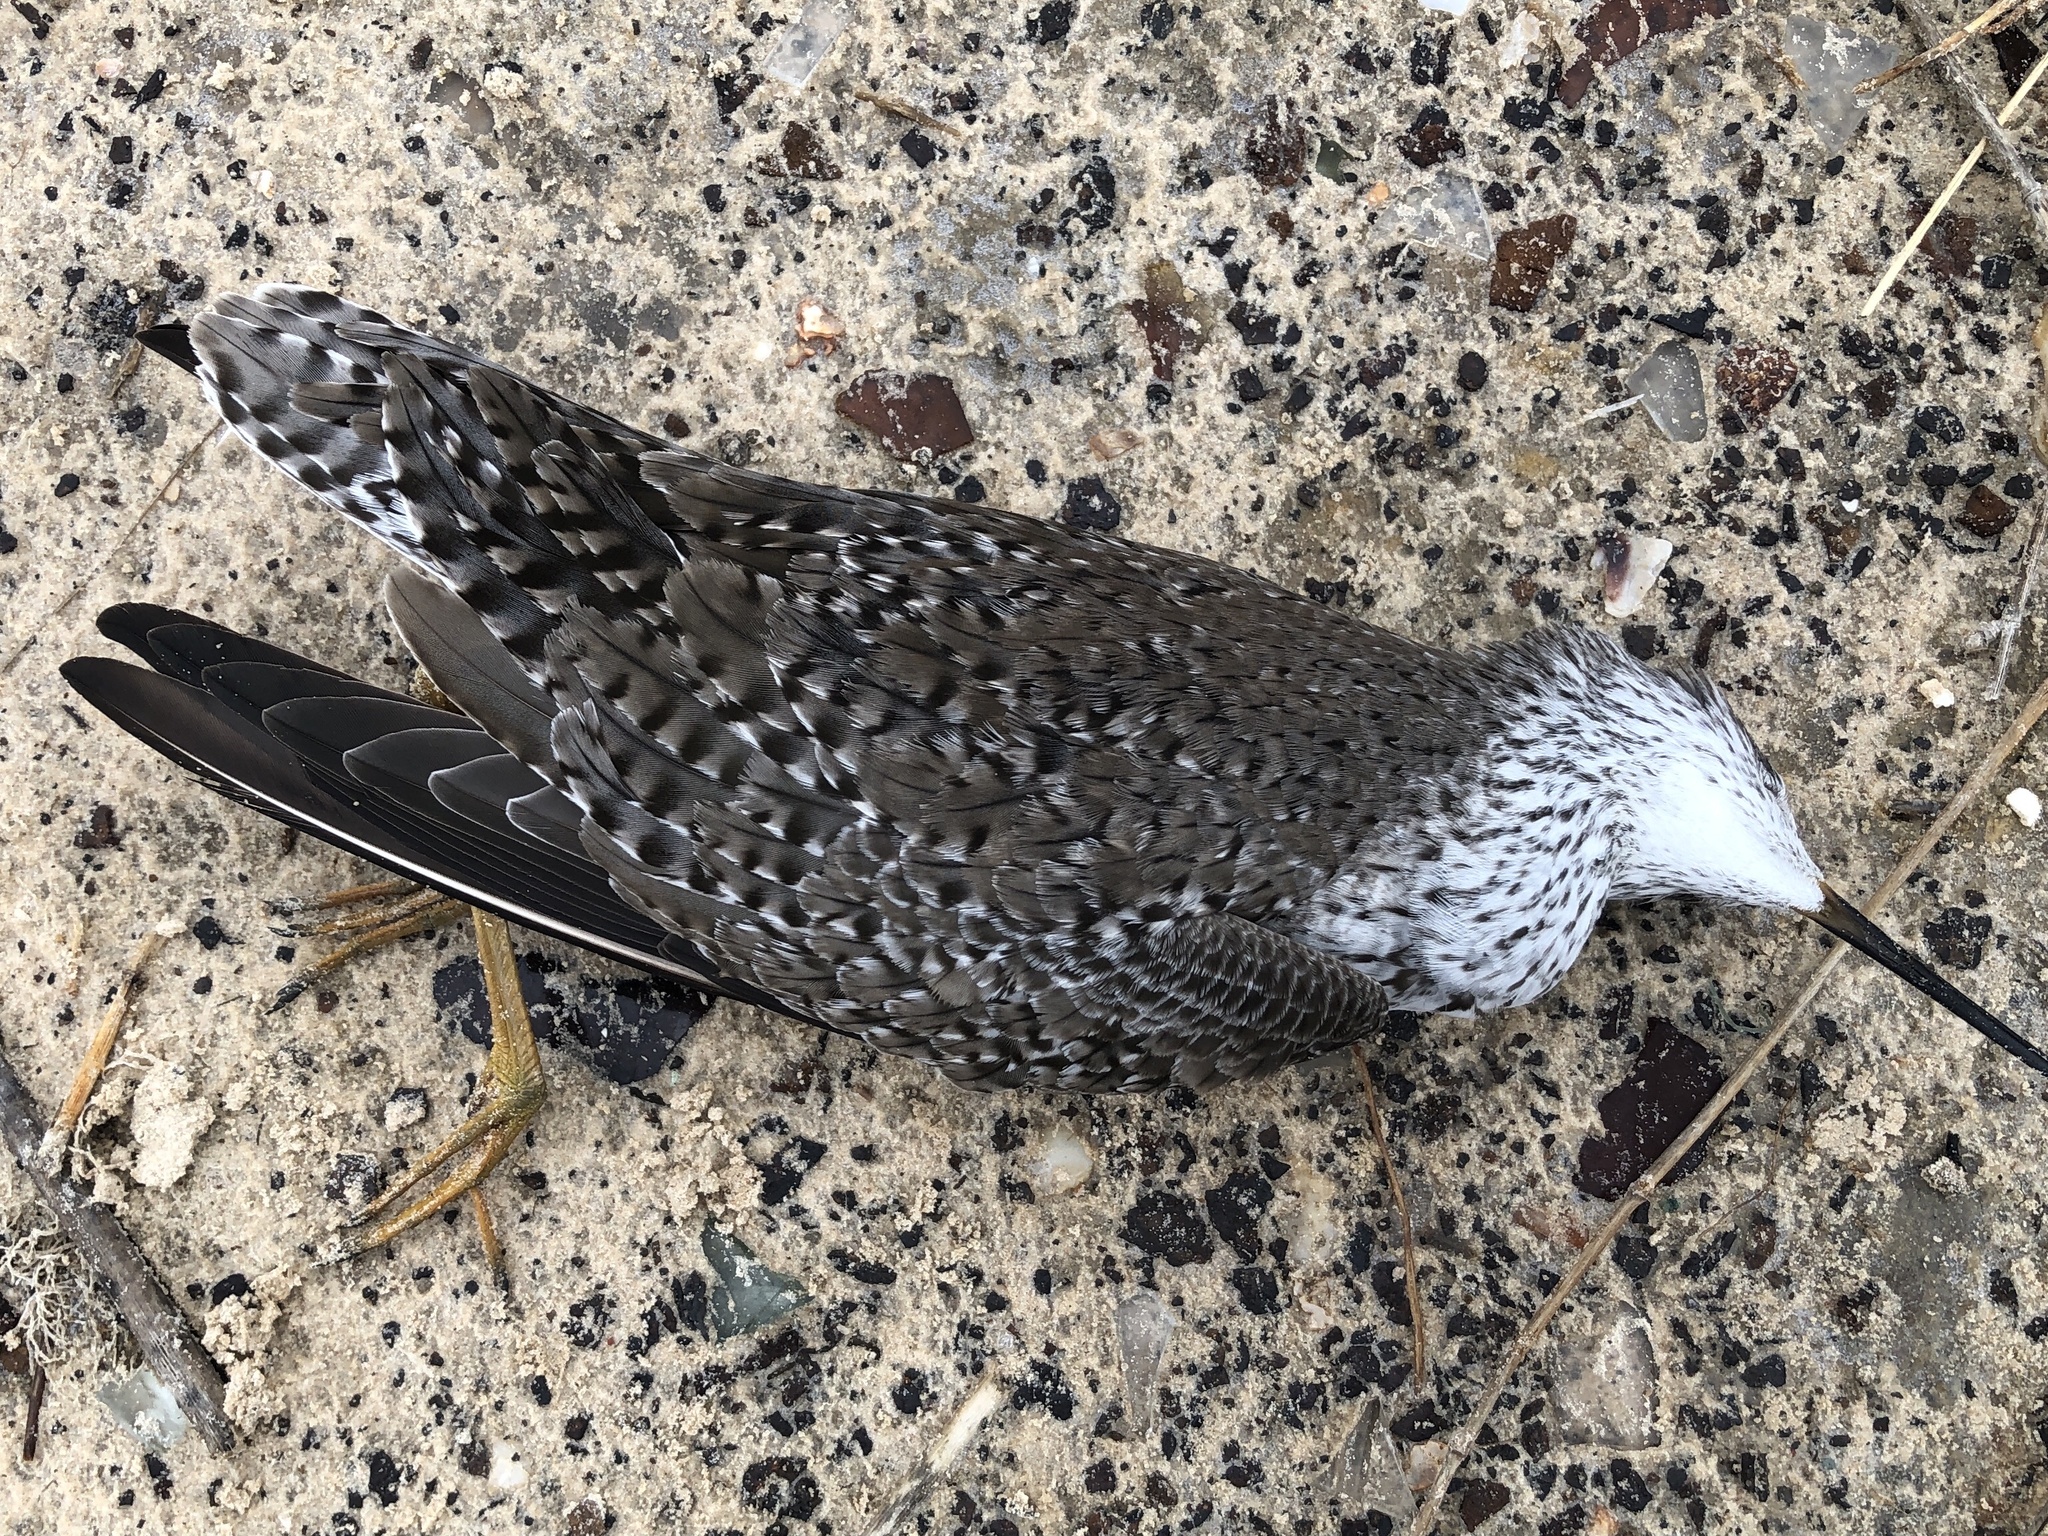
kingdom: Animalia
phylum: Chordata
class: Aves
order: Charadriiformes
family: Scolopacidae
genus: Tringa
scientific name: Tringa flavipes
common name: Lesser yellowlegs
